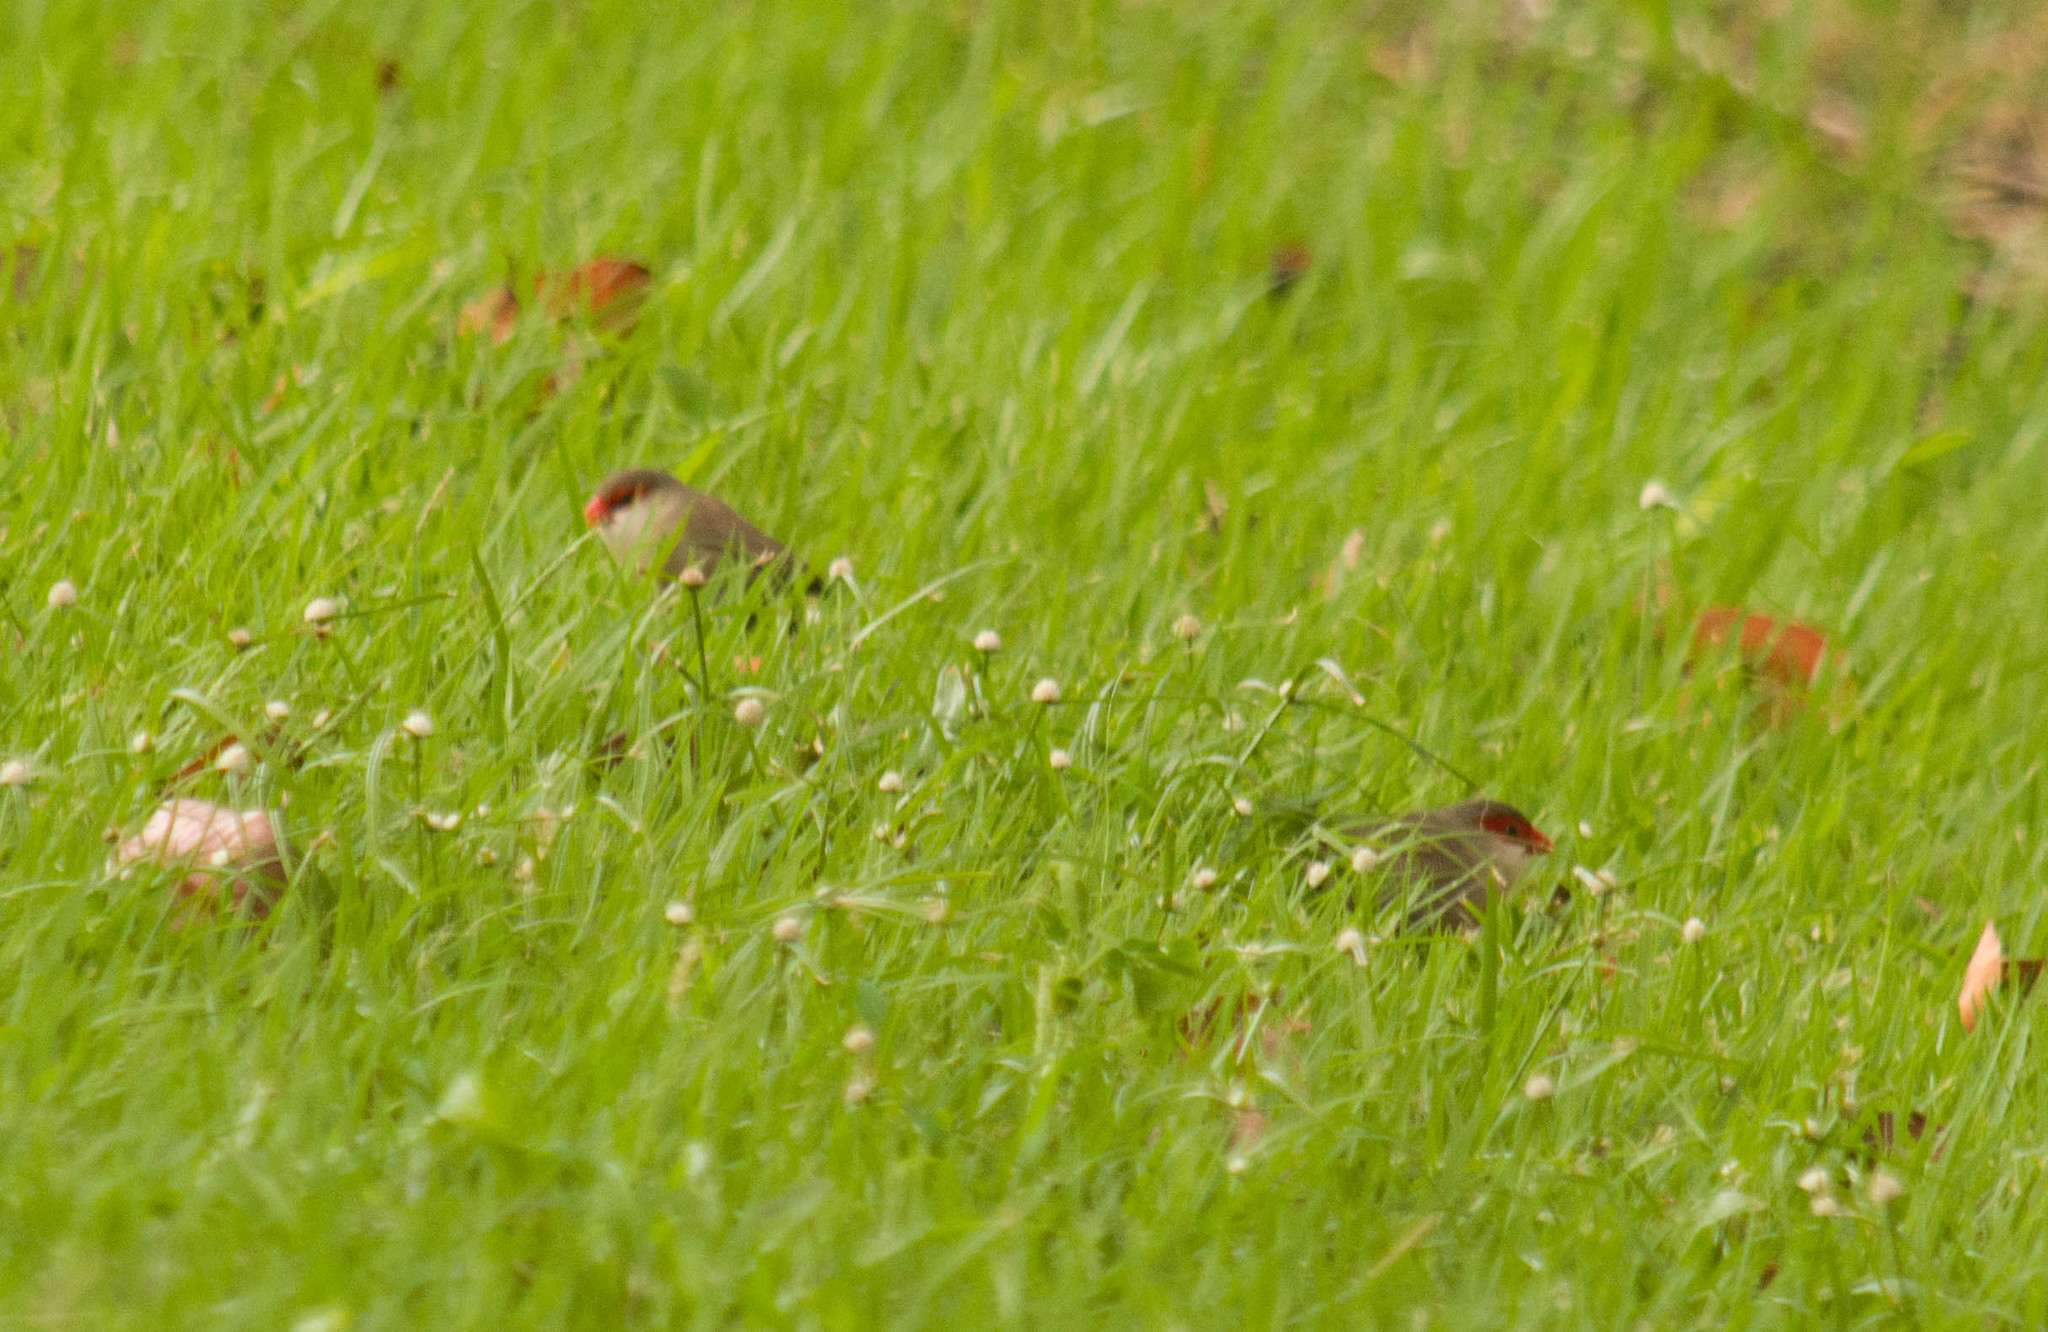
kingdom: Animalia
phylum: Chordata
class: Aves
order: Passeriformes
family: Estrildidae
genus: Estrilda
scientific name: Estrilda astrild
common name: Common waxbill
